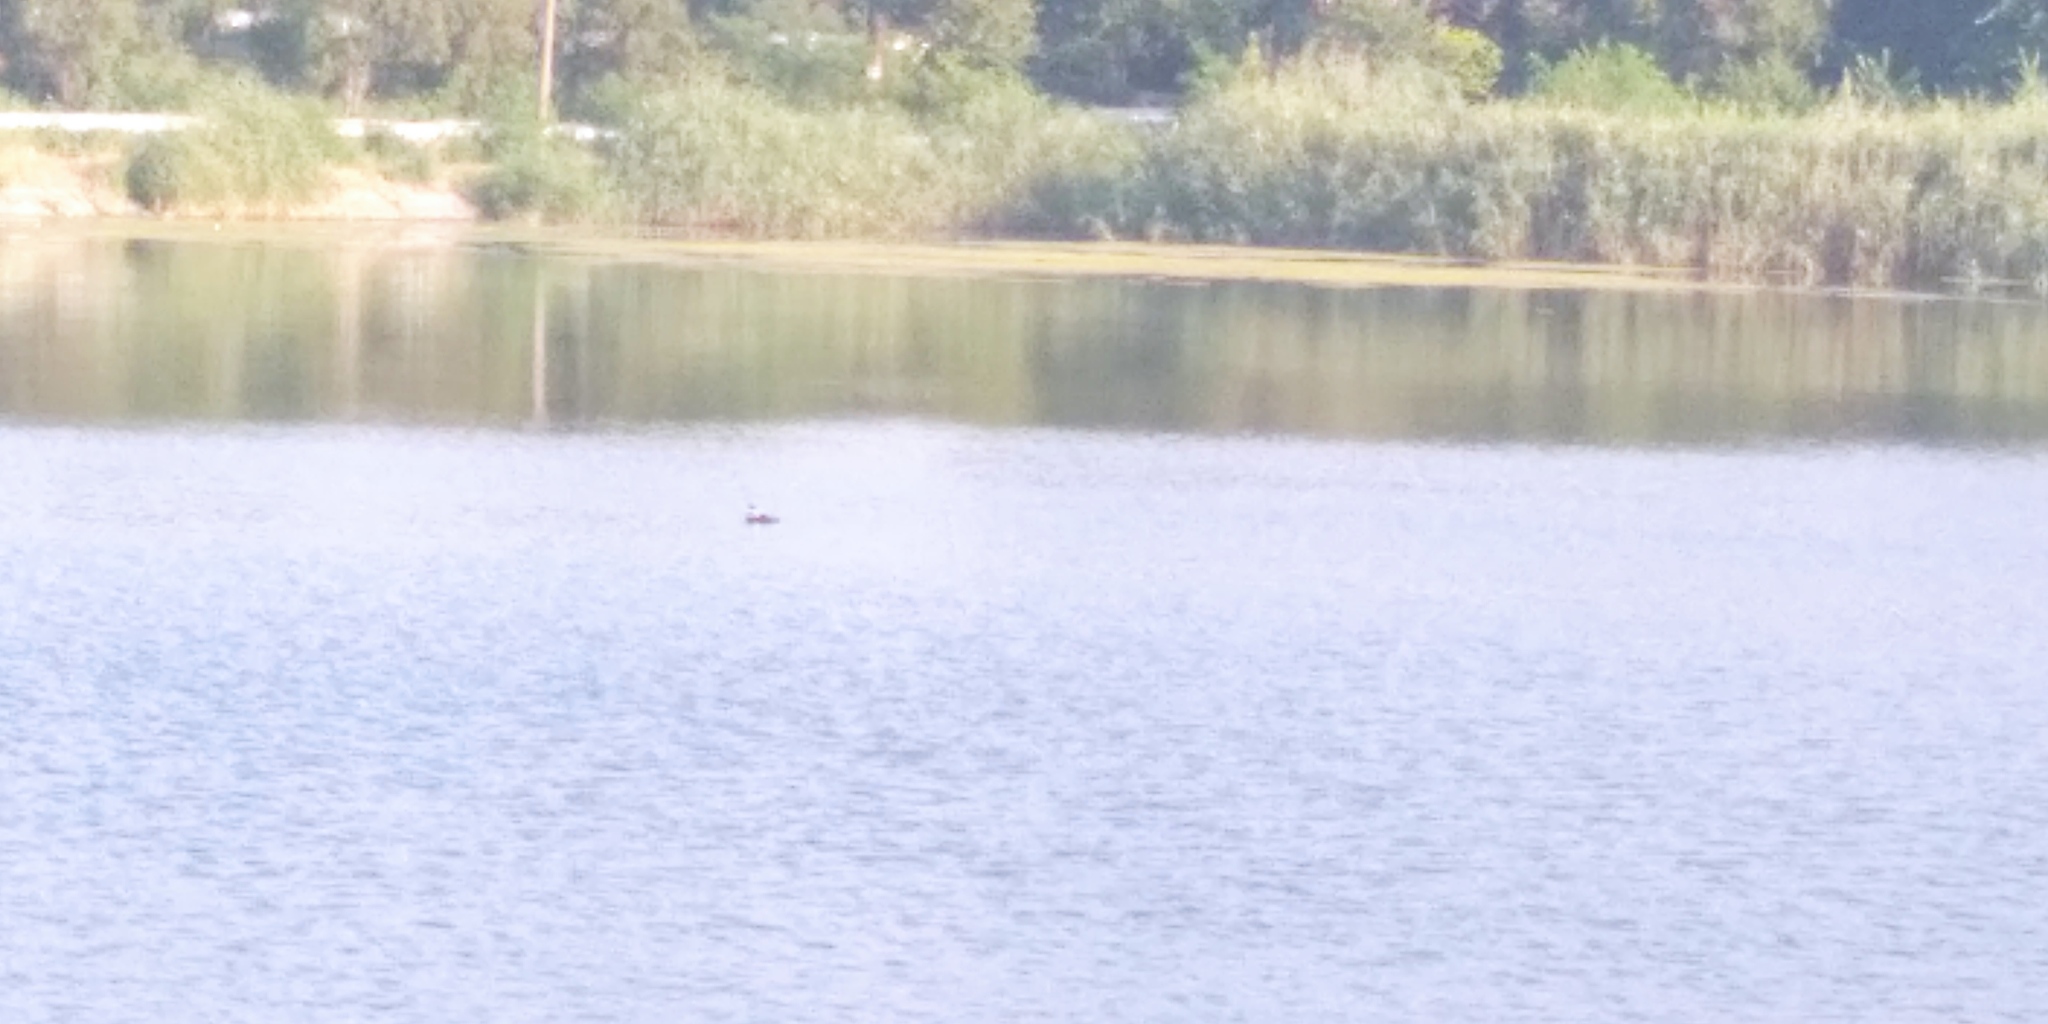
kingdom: Animalia
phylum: Chordata
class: Aves
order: Podicipediformes
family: Podicipedidae
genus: Podiceps
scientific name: Podiceps cristatus
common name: Great crested grebe
